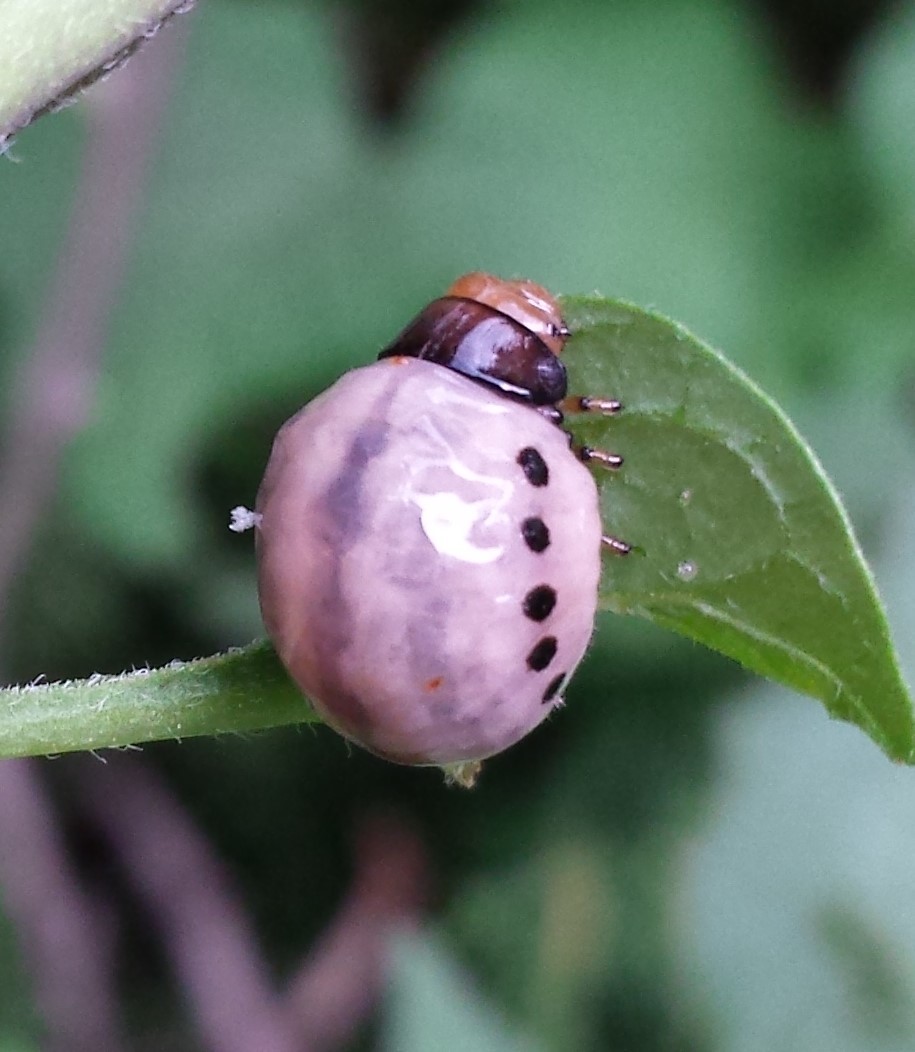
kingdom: Animalia
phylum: Arthropoda
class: Insecta
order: Coleoptera
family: Chrysomelidae
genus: Leptinotarsa
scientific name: Leptinotarsa juncta
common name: False potato beetle
